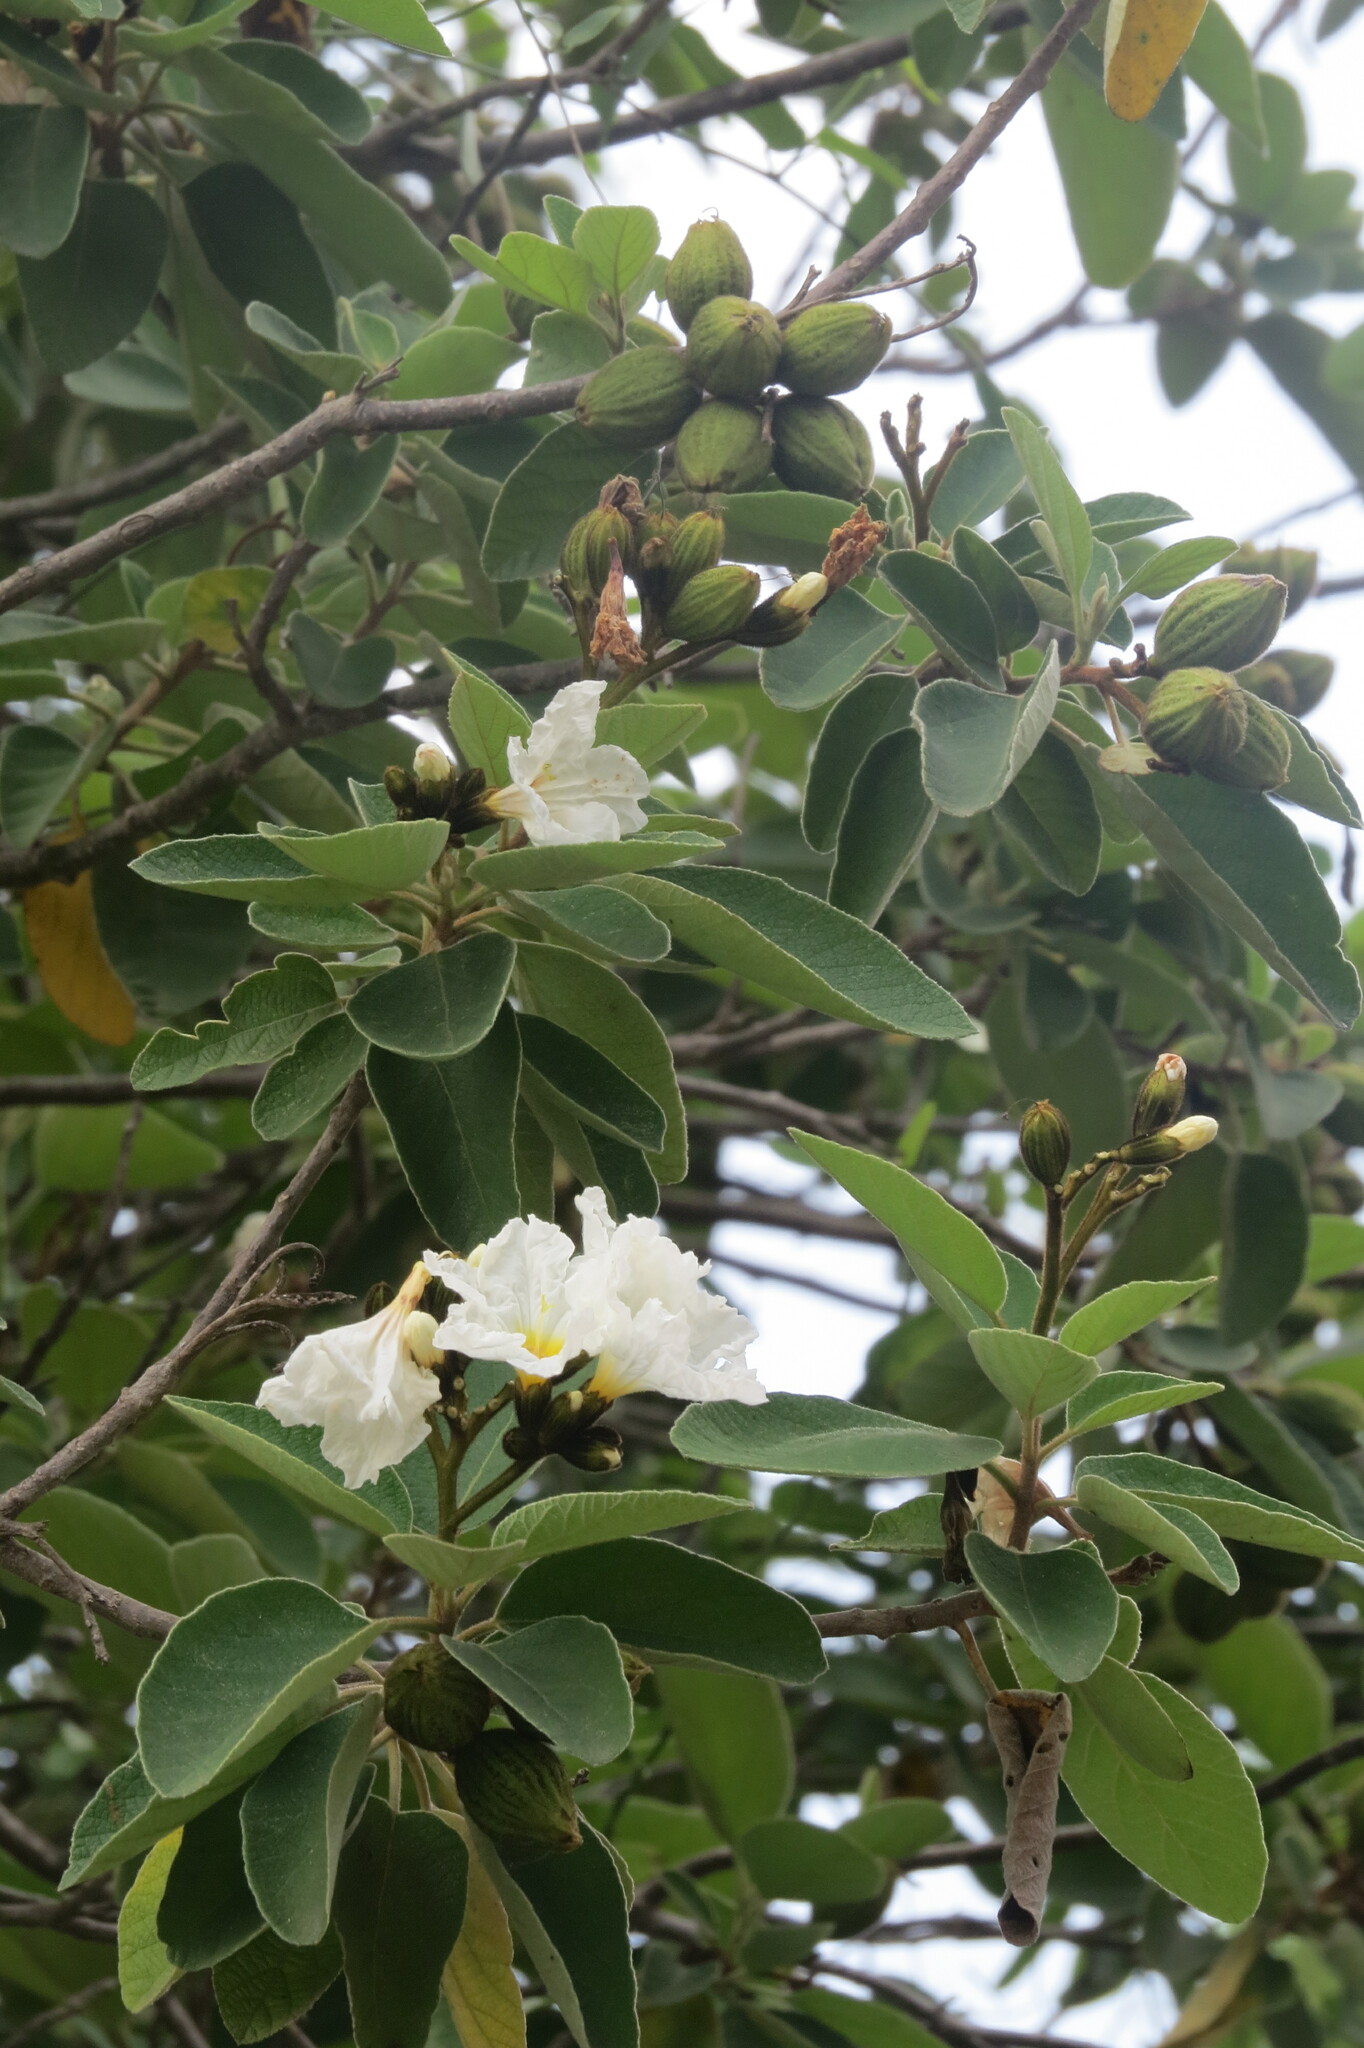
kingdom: Plantae
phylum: Tracheophyta
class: Magnoliopsida
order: Boraginales
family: Cordiaceae
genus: Cordia
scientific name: Cordia boissieri
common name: Mexican-olive
